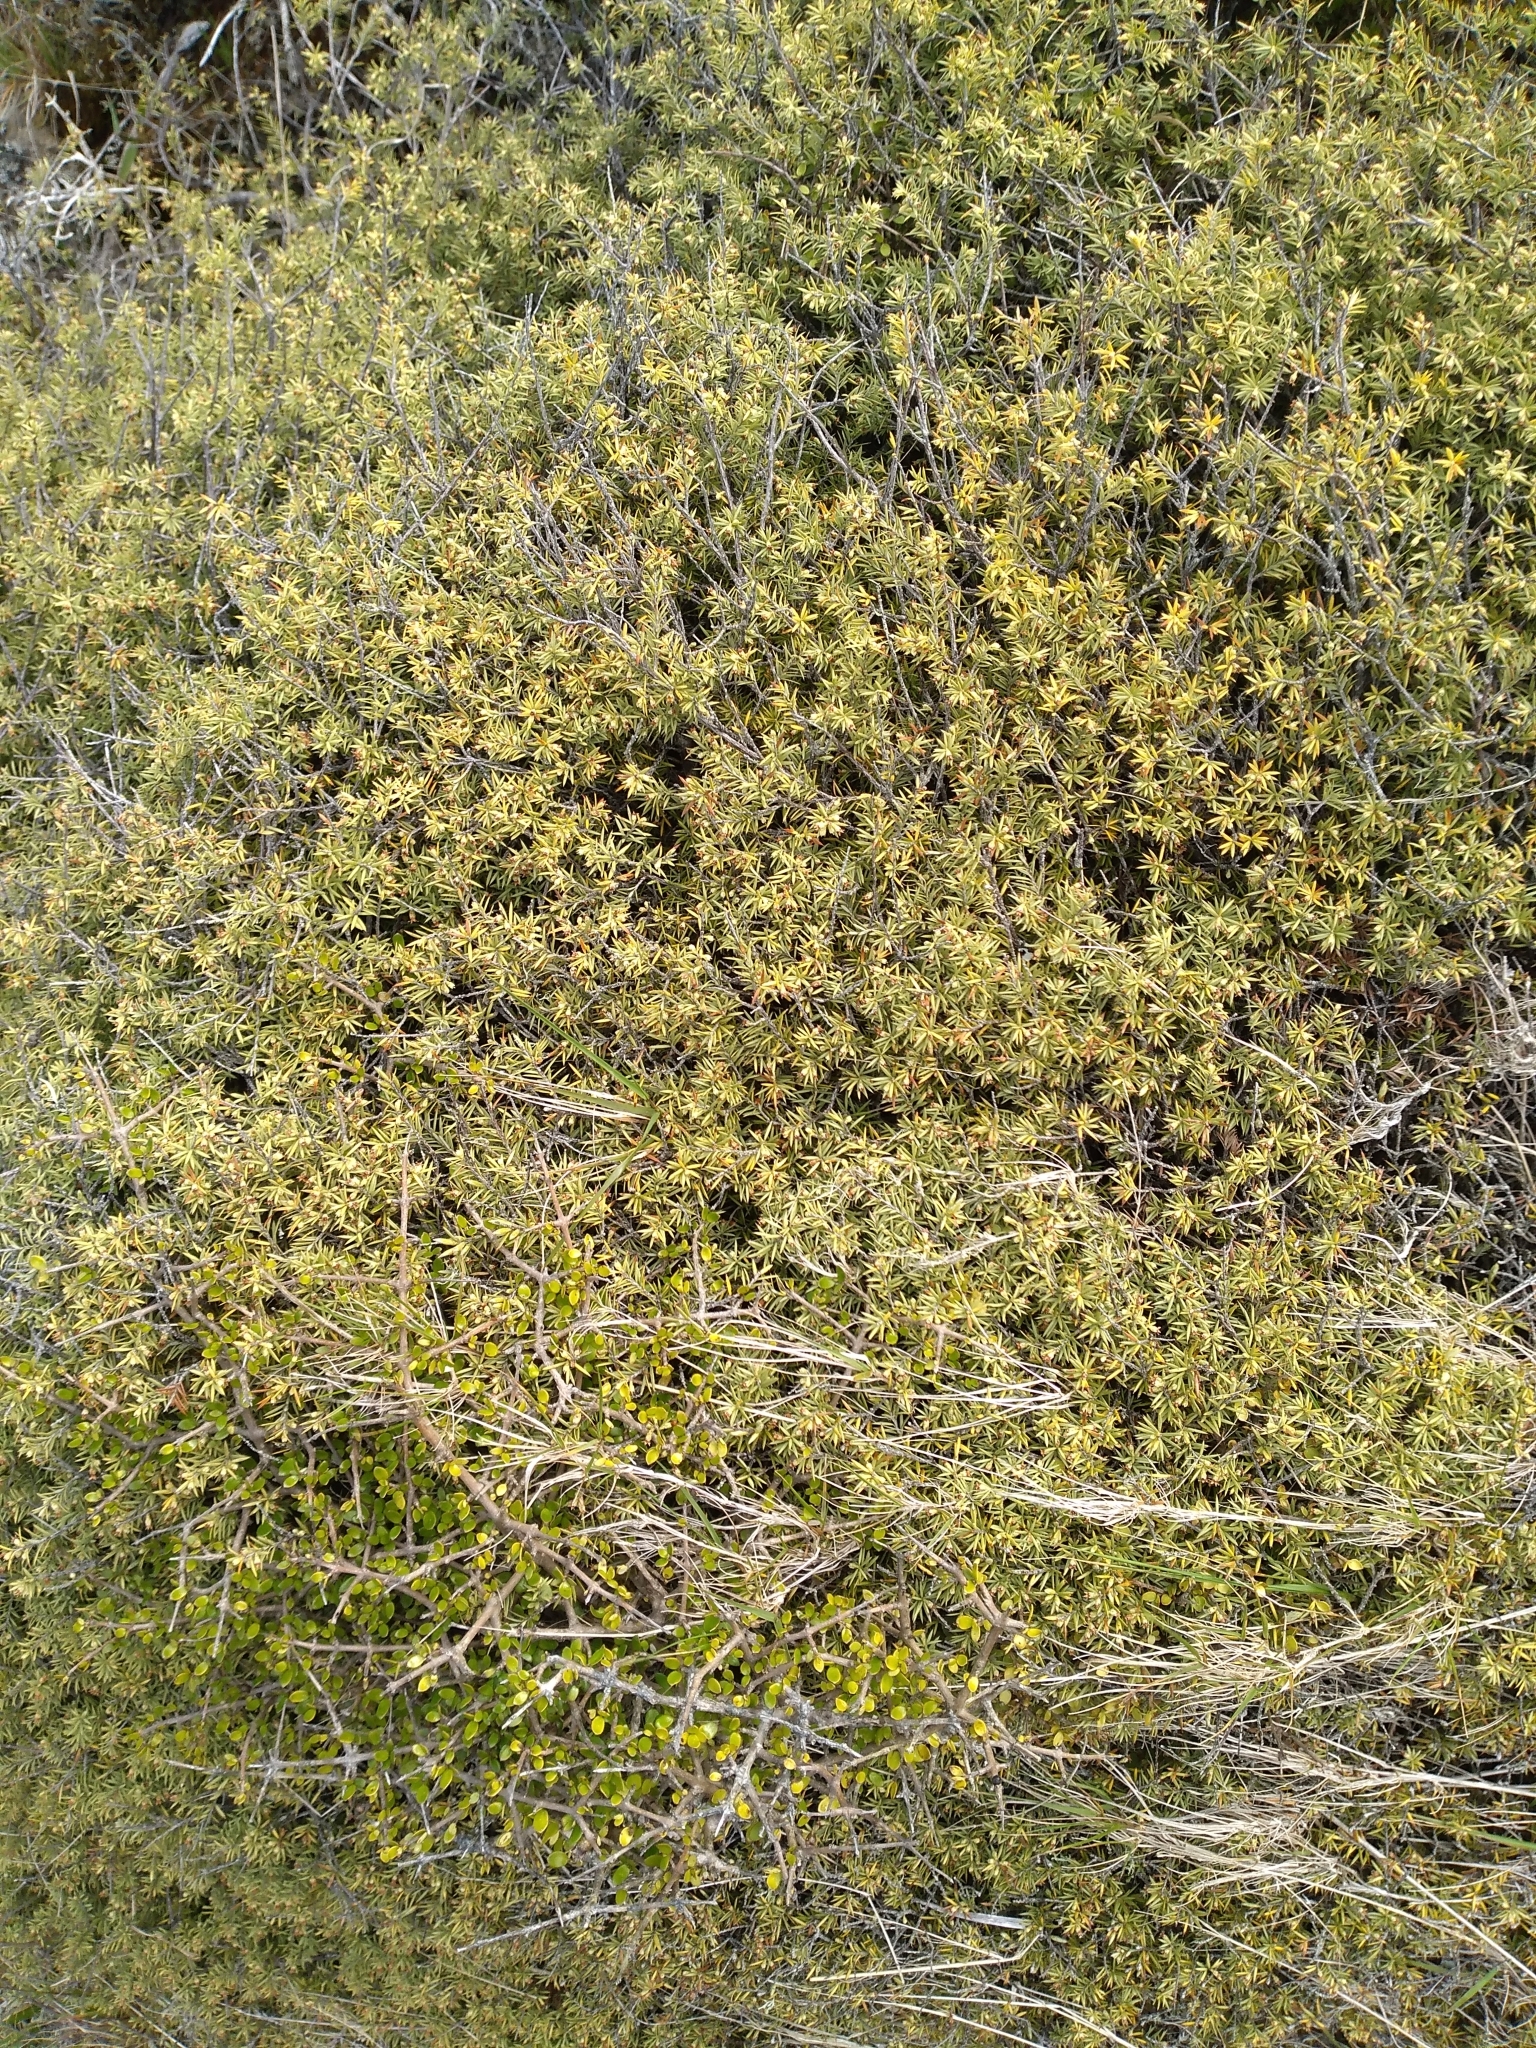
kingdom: Plantae
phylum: Tracheophyta
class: Magnoliopsida
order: Ericales
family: Ericaceae
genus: Leptecophylla
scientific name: Leptecophylla juniperina
